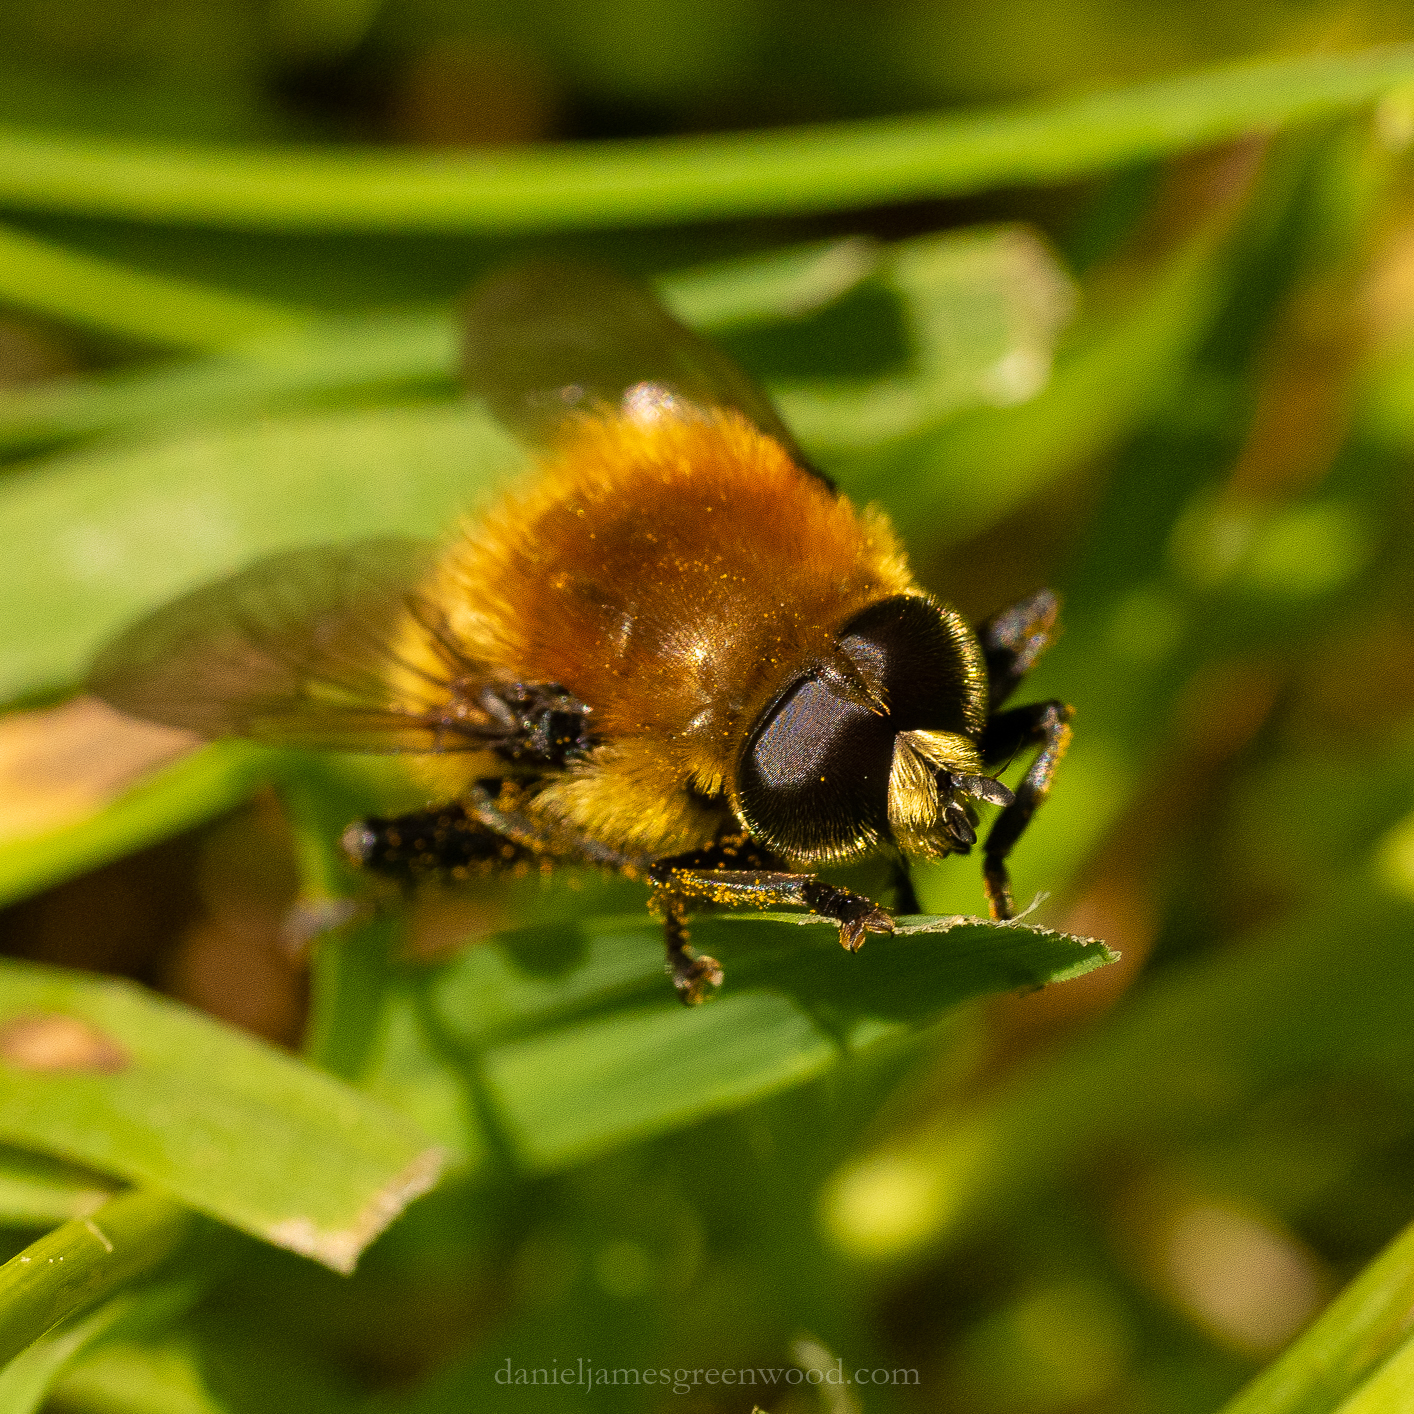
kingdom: Animalia
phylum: Arthropoda
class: Insecta
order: Diptera
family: Syrphidae
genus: Merodon
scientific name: Merodon equestris
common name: Greater bulb-fly
